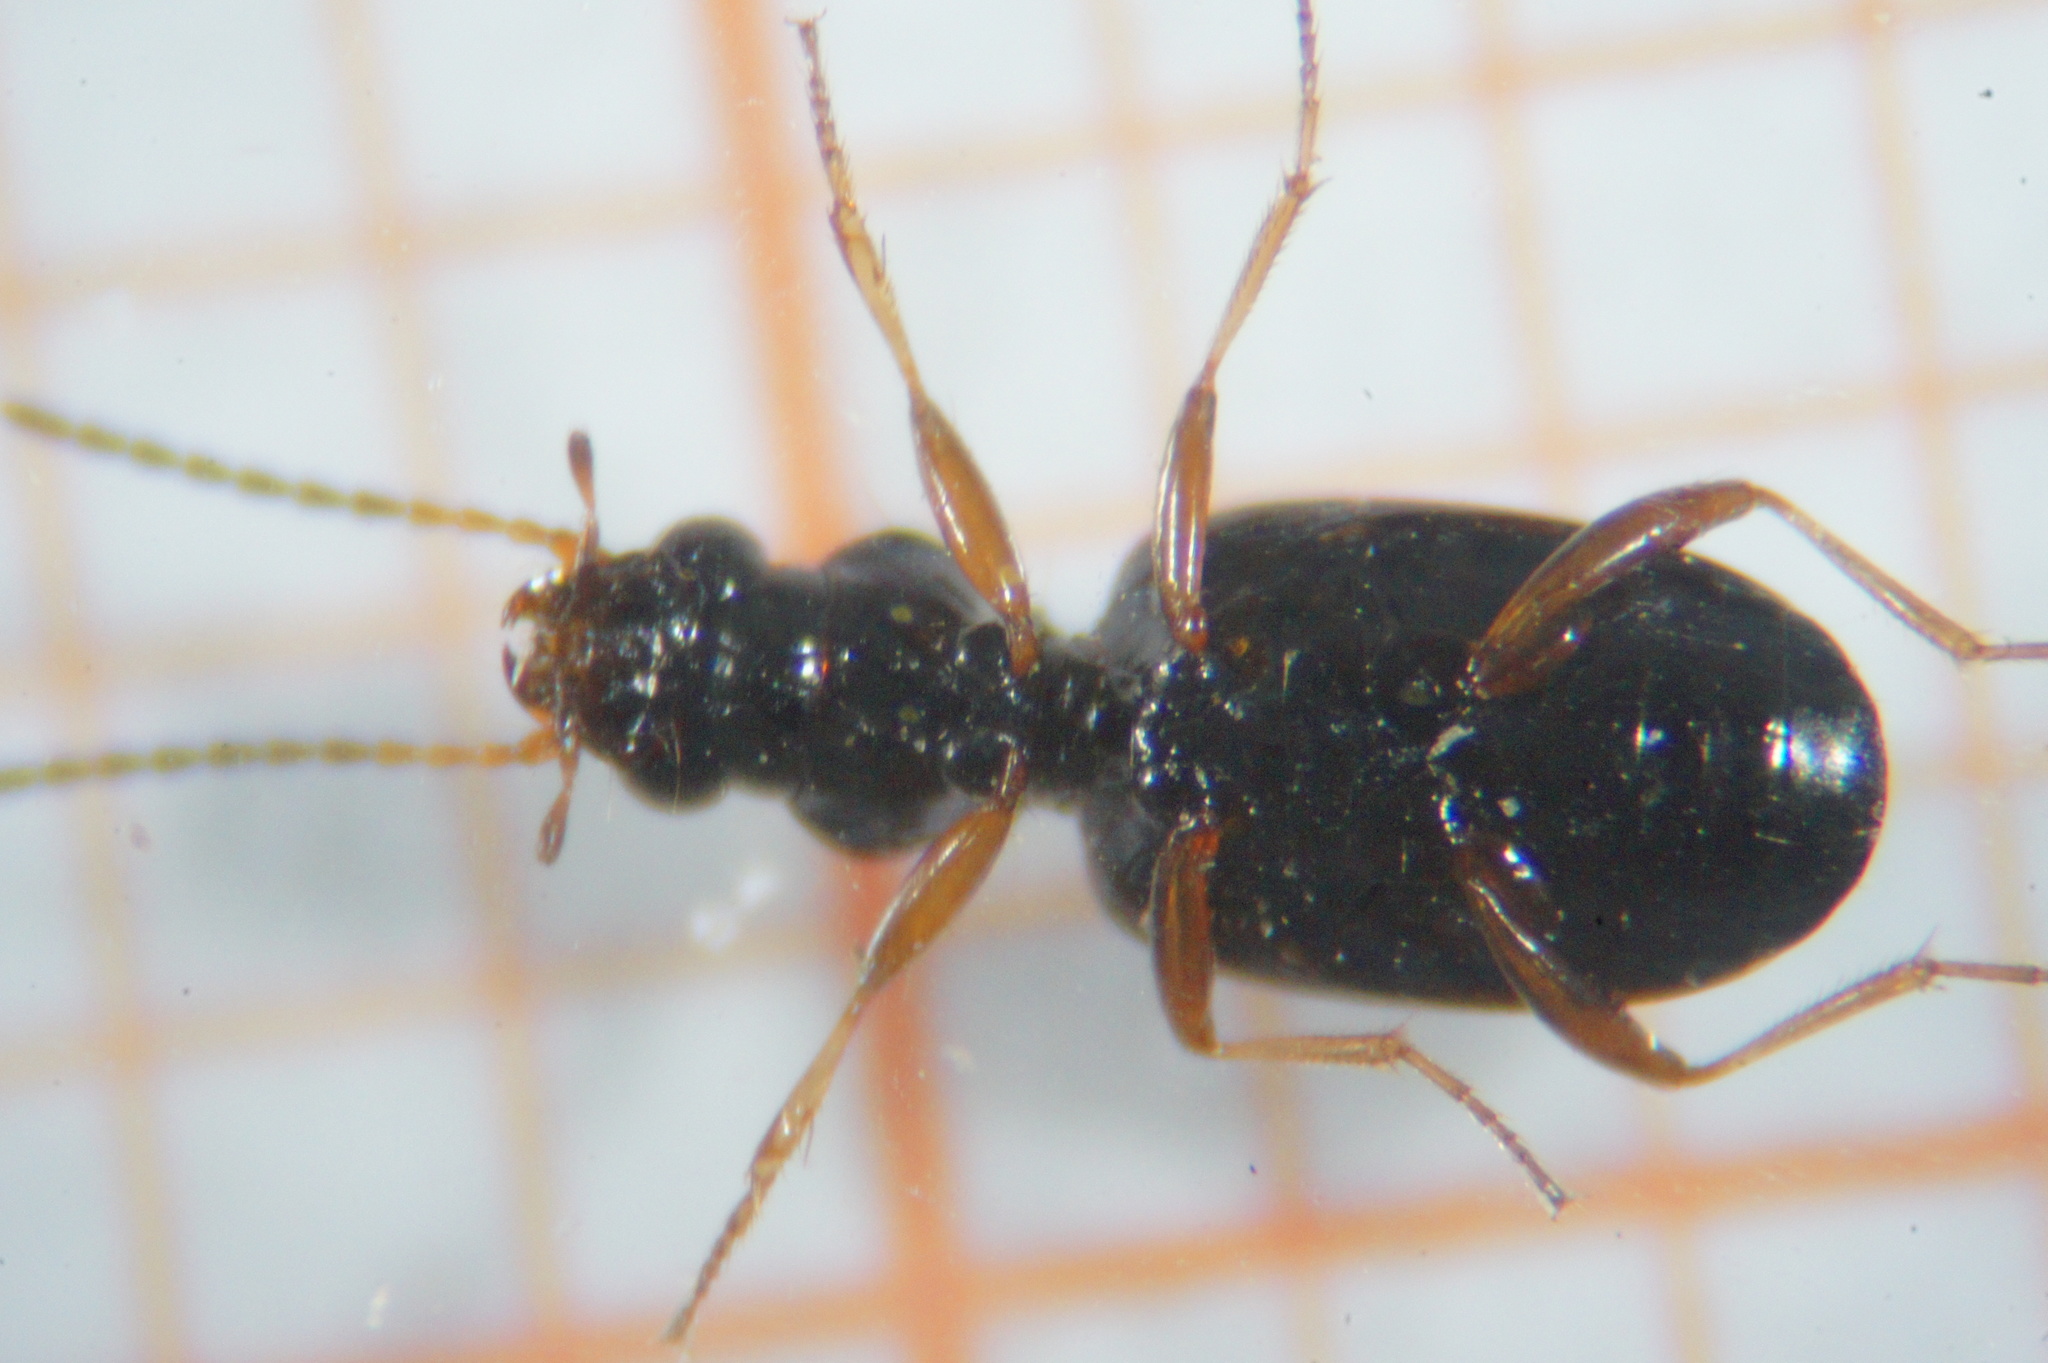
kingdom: Animalia
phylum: Arthropoda
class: Insecta
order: Coleoptera
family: Carabidae
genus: Bembidion
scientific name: Bembidion quadrimaculatum
